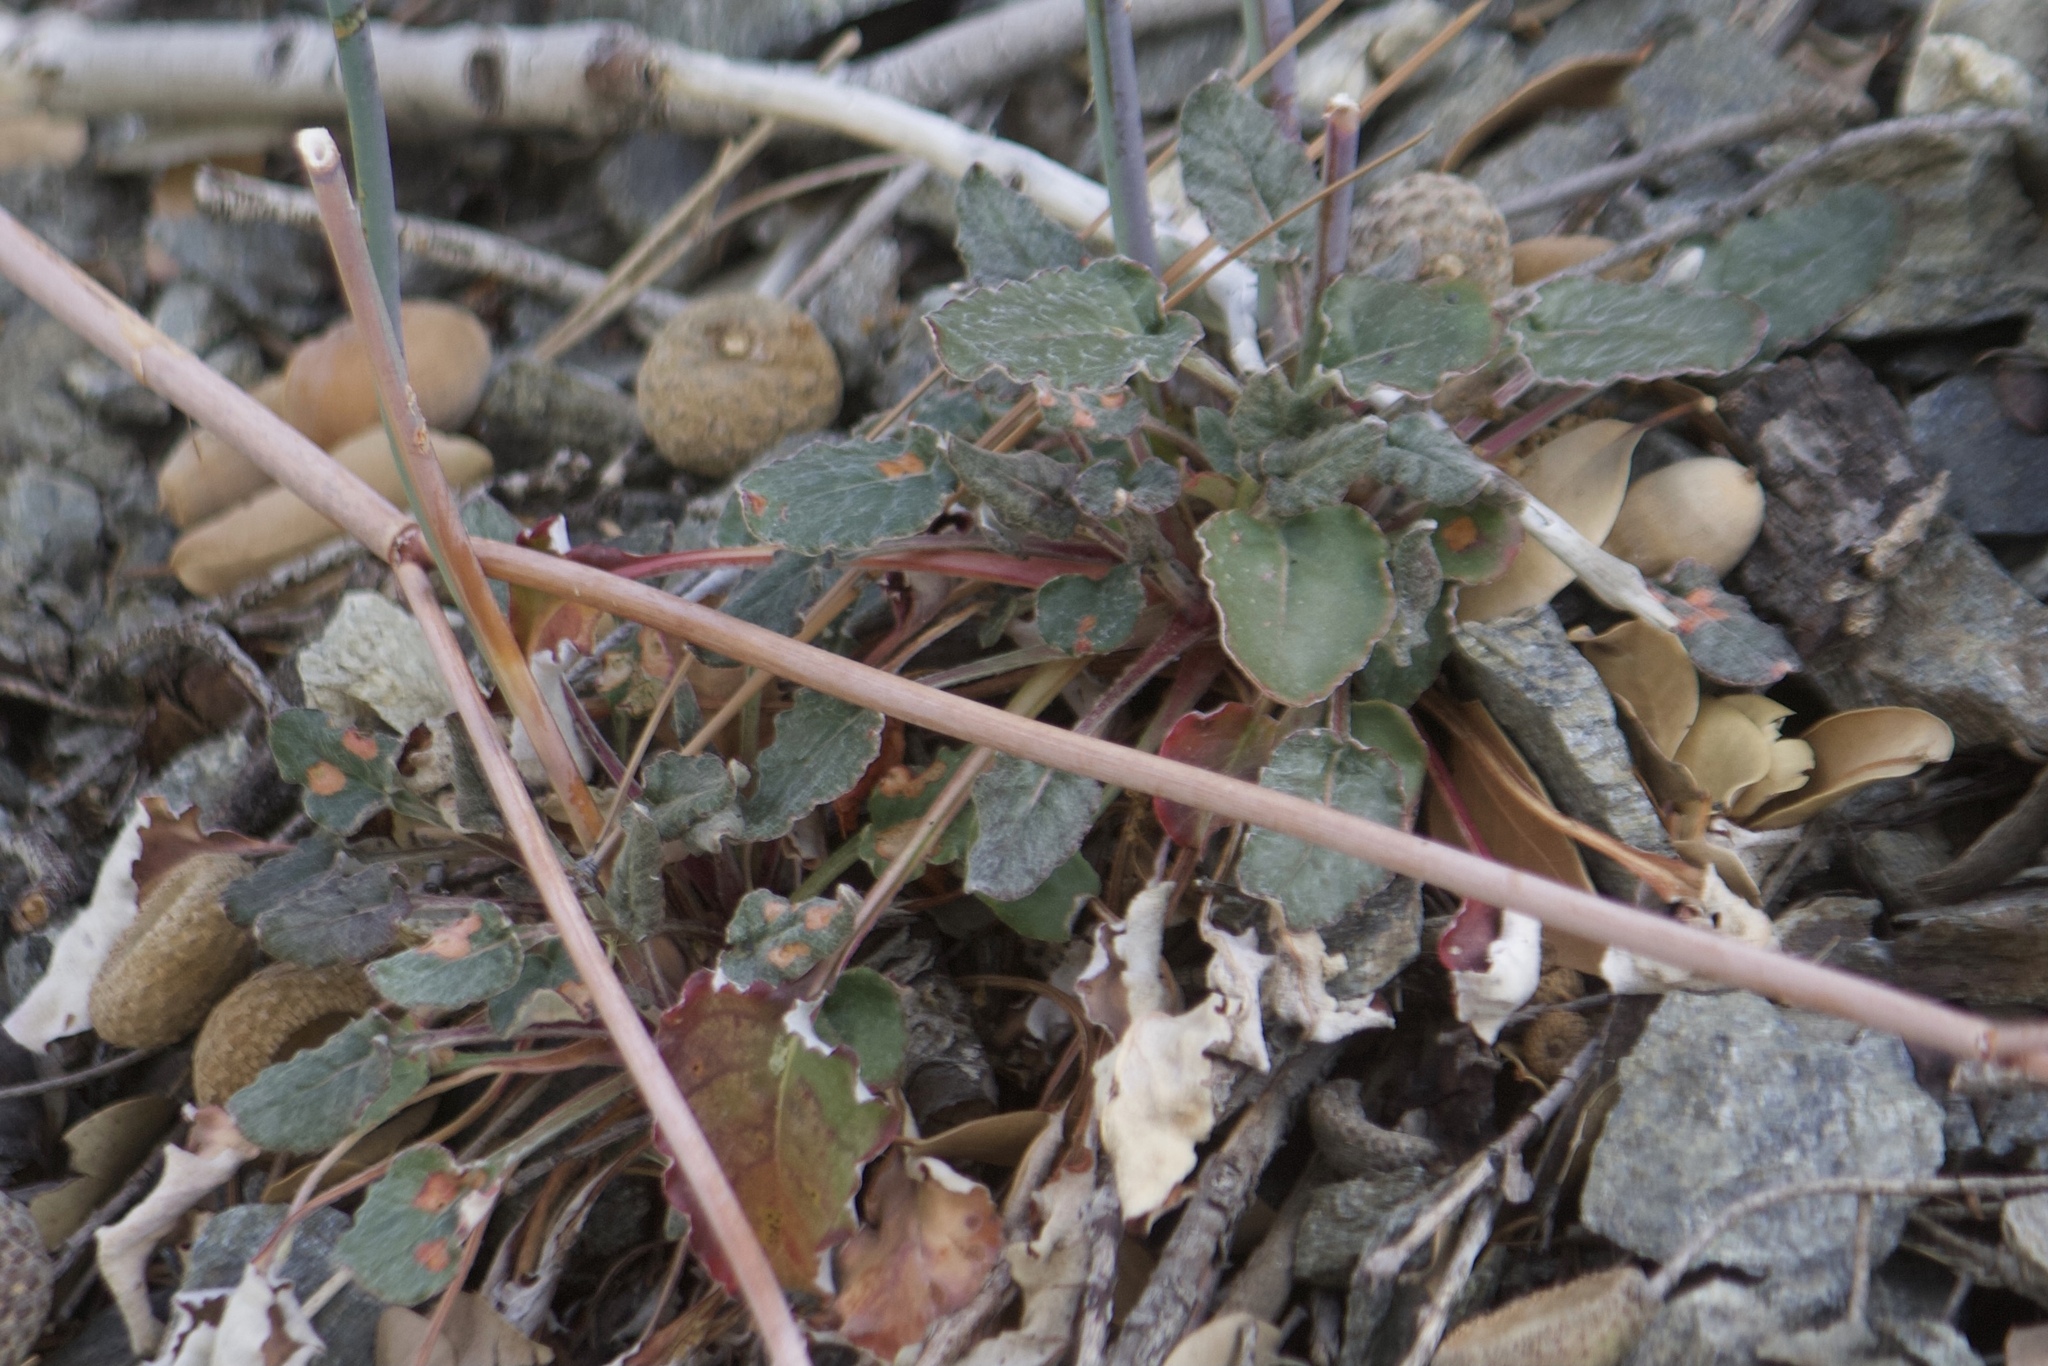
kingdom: Plantae
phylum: Tracheophyta
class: Magnoliopsida
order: Caryophyllales
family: Polygonaceae
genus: Eriogonum
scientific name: Eriogonum nudum
